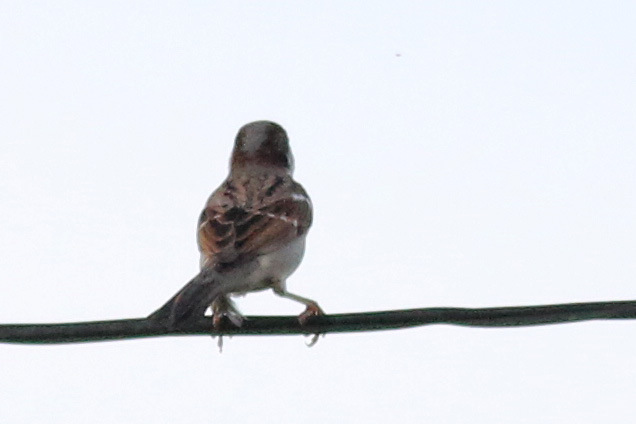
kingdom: Animalia
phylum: Chordata
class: Aves
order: Passeriformes
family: Passeridae
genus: Passer
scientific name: Passer domesticus
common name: House sparrow
